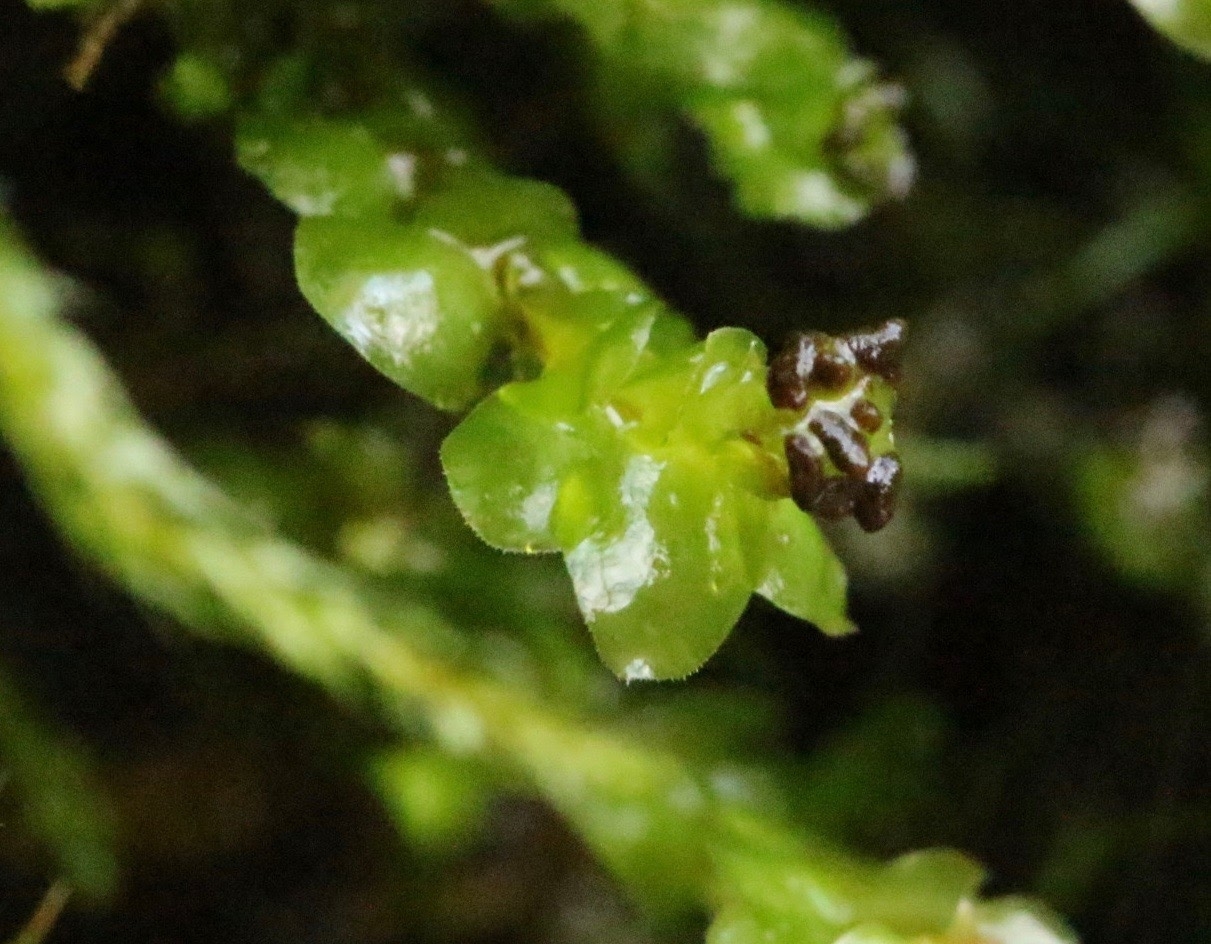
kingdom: Plantae
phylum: Marchantiophyta
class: Jungermanniopsida
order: Jungermanniales
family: Scapaniaceae
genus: Scapania
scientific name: Scapania nemorea
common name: Grove earwort
